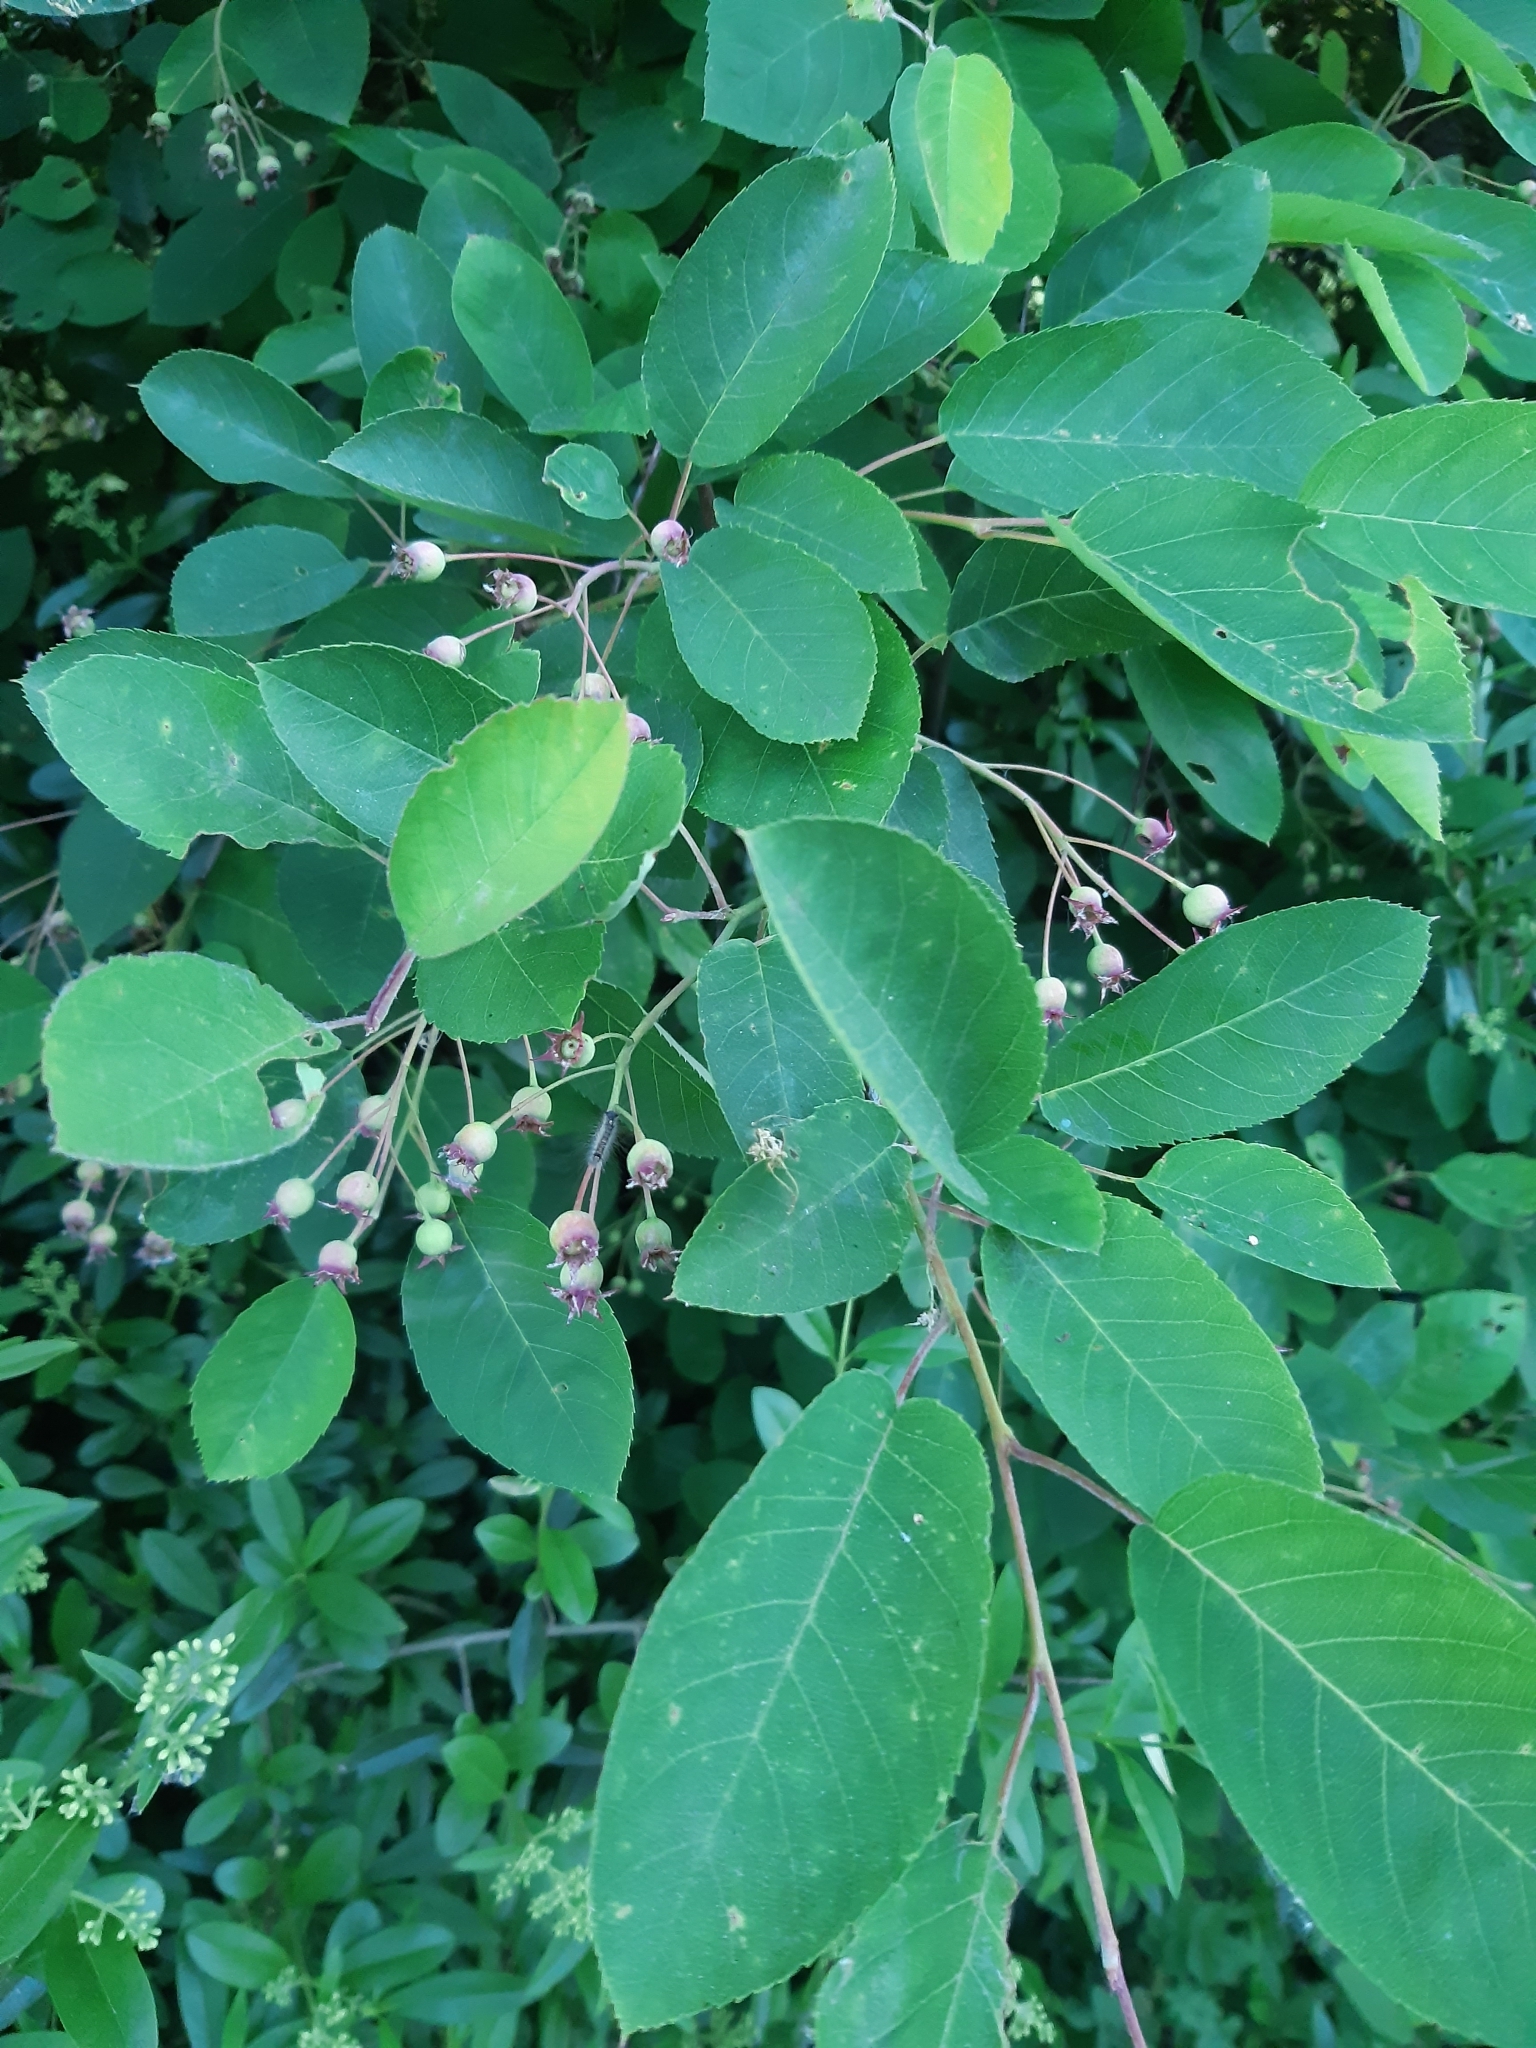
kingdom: Plantae
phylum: Tracheophyta
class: Magnoliopsida
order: Rosales
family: Rosaceae
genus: Amelanchier
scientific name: Amelanchier arborea
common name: Downy serviceberry
